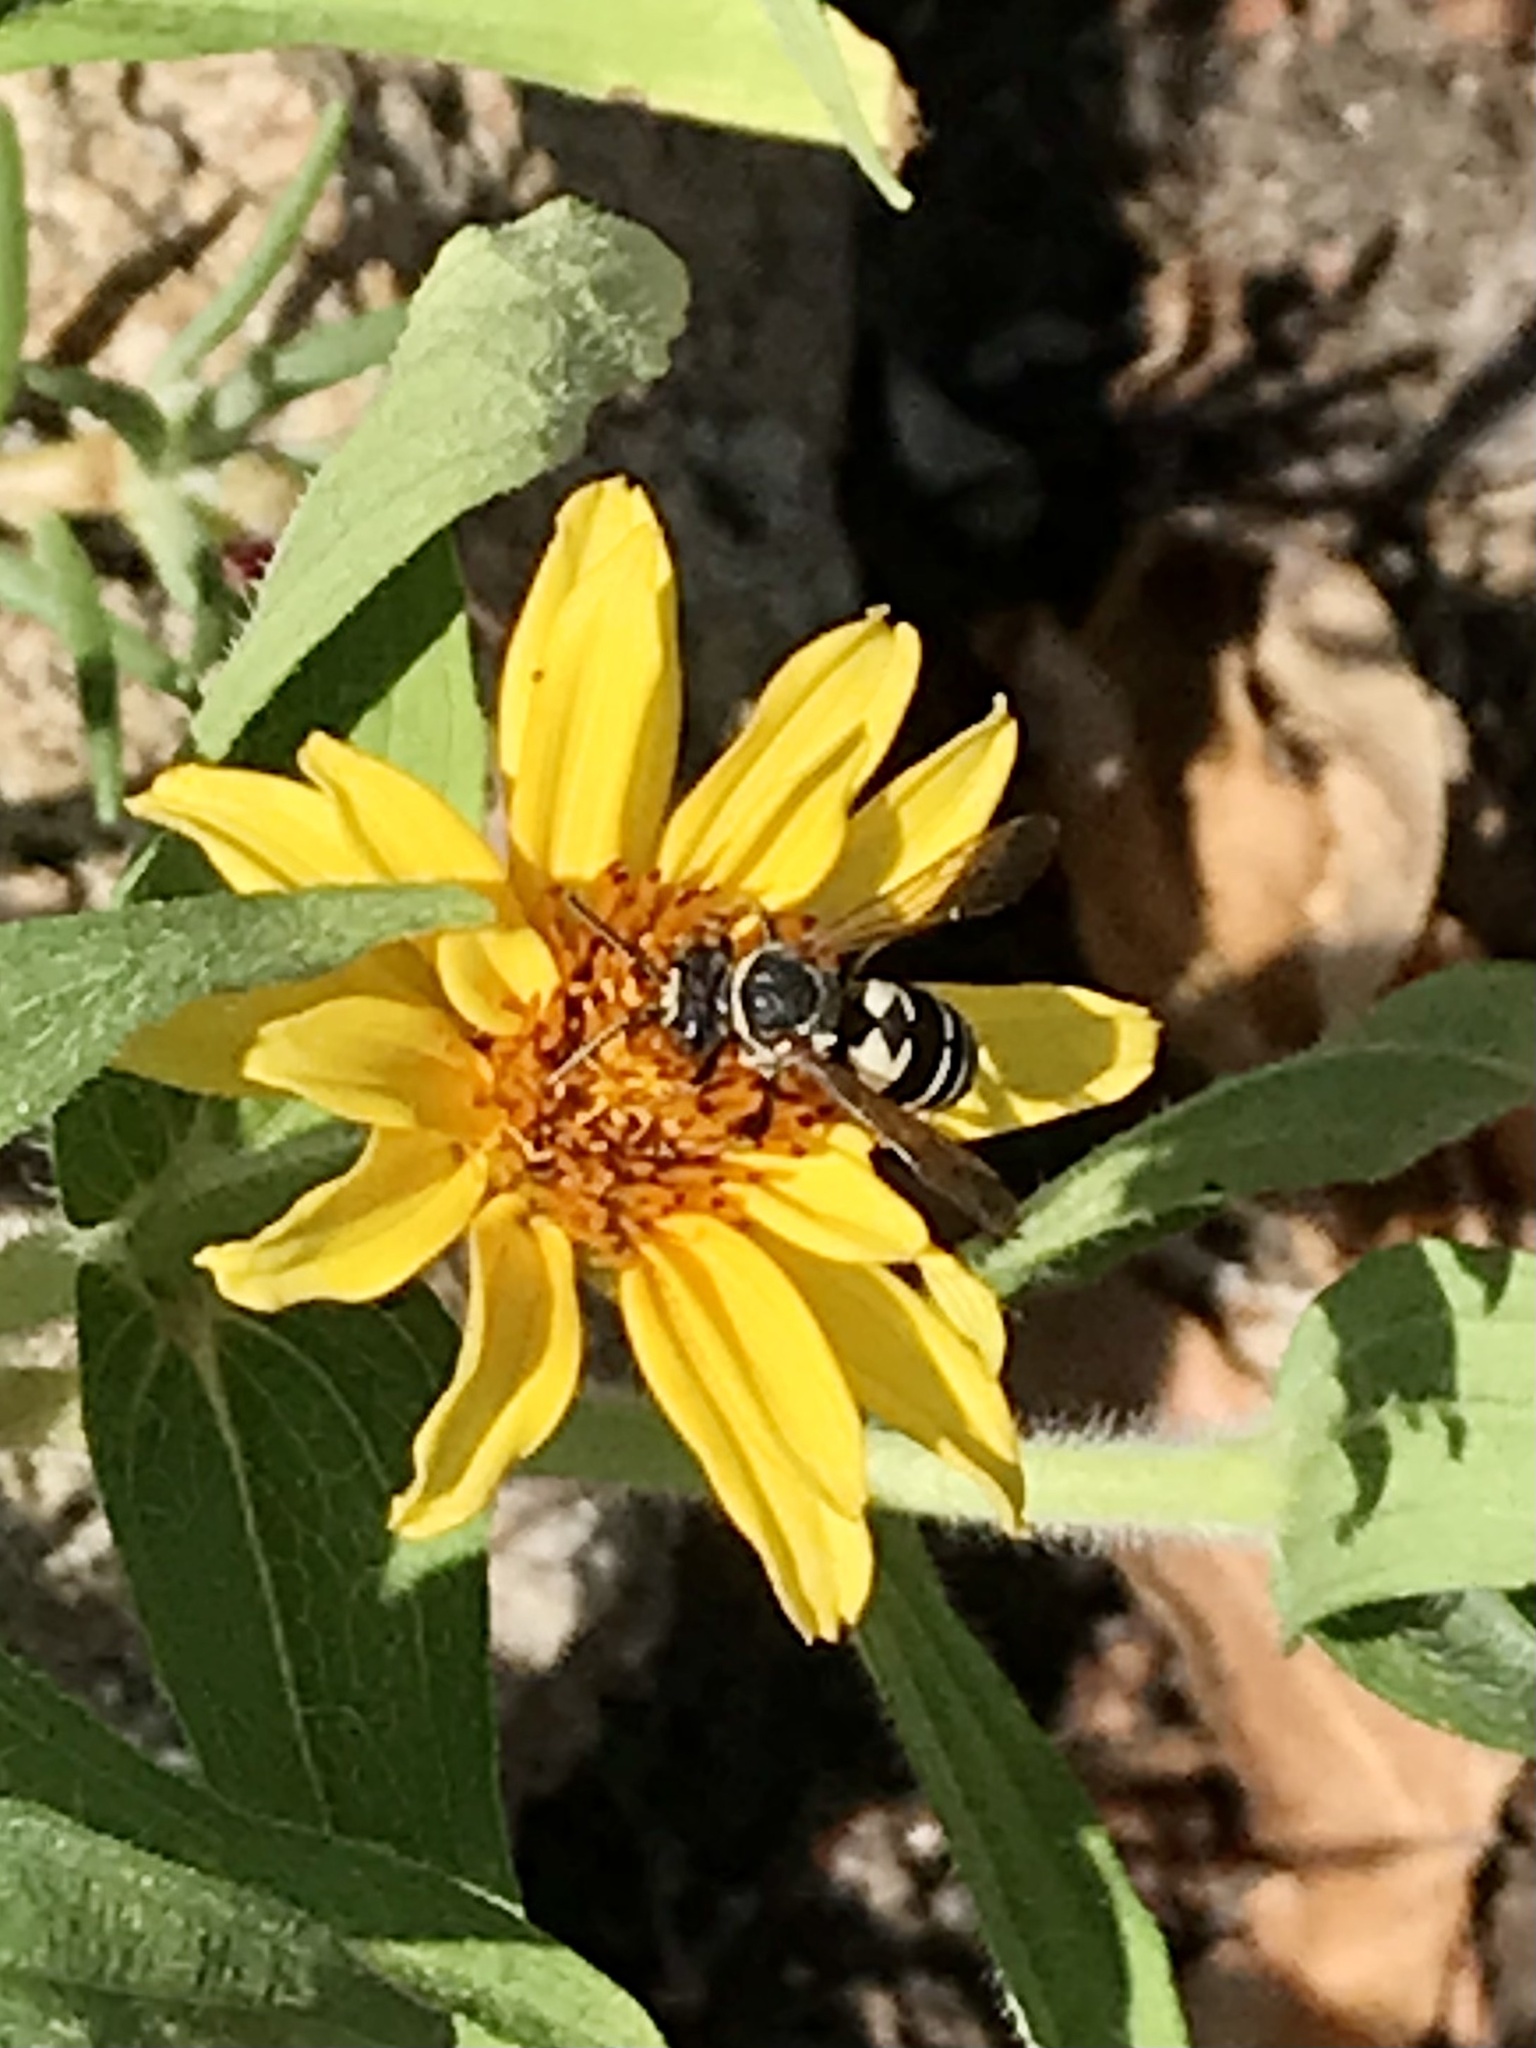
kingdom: Animalia
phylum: Arthropoda
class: Insecta
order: Hymenoptera
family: Apidae
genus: Triepeolus
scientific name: Triepeolus lunatus
